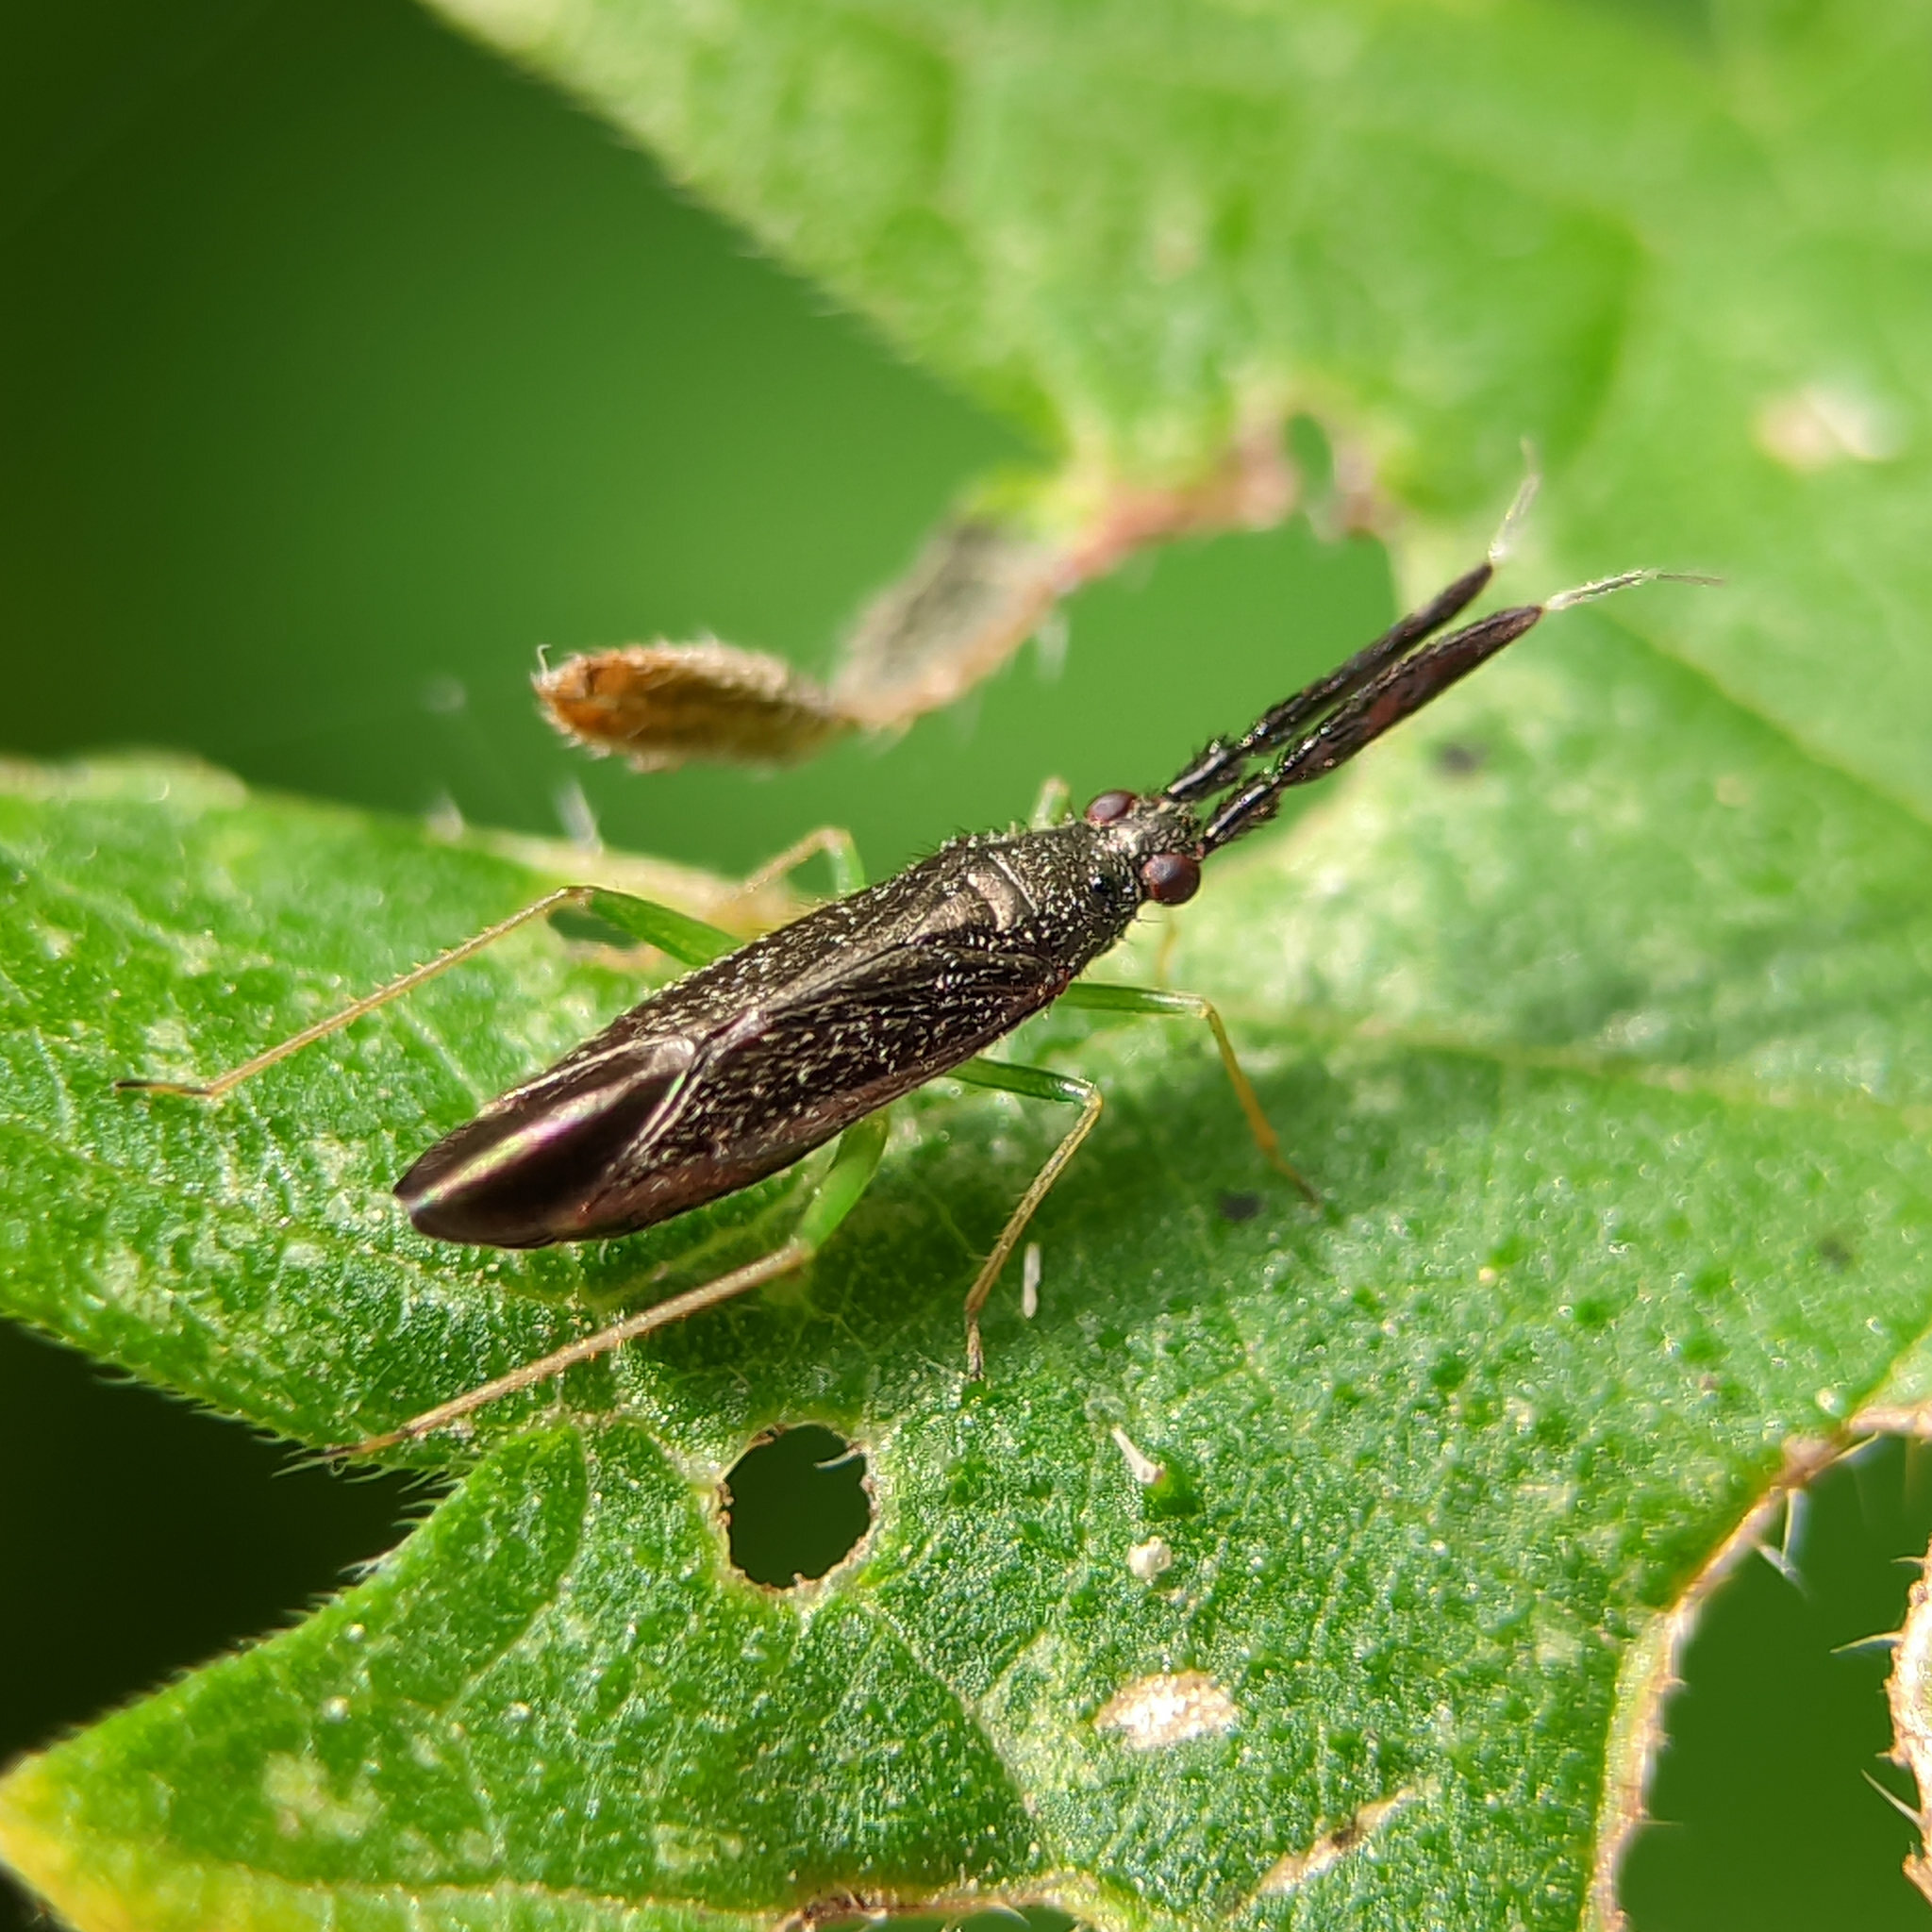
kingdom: Animalia
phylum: Arthropoda
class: Insecta
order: Hemiptera
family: Miridae
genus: Heterotoma
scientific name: Heterotoma planicornis
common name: Plant bug
